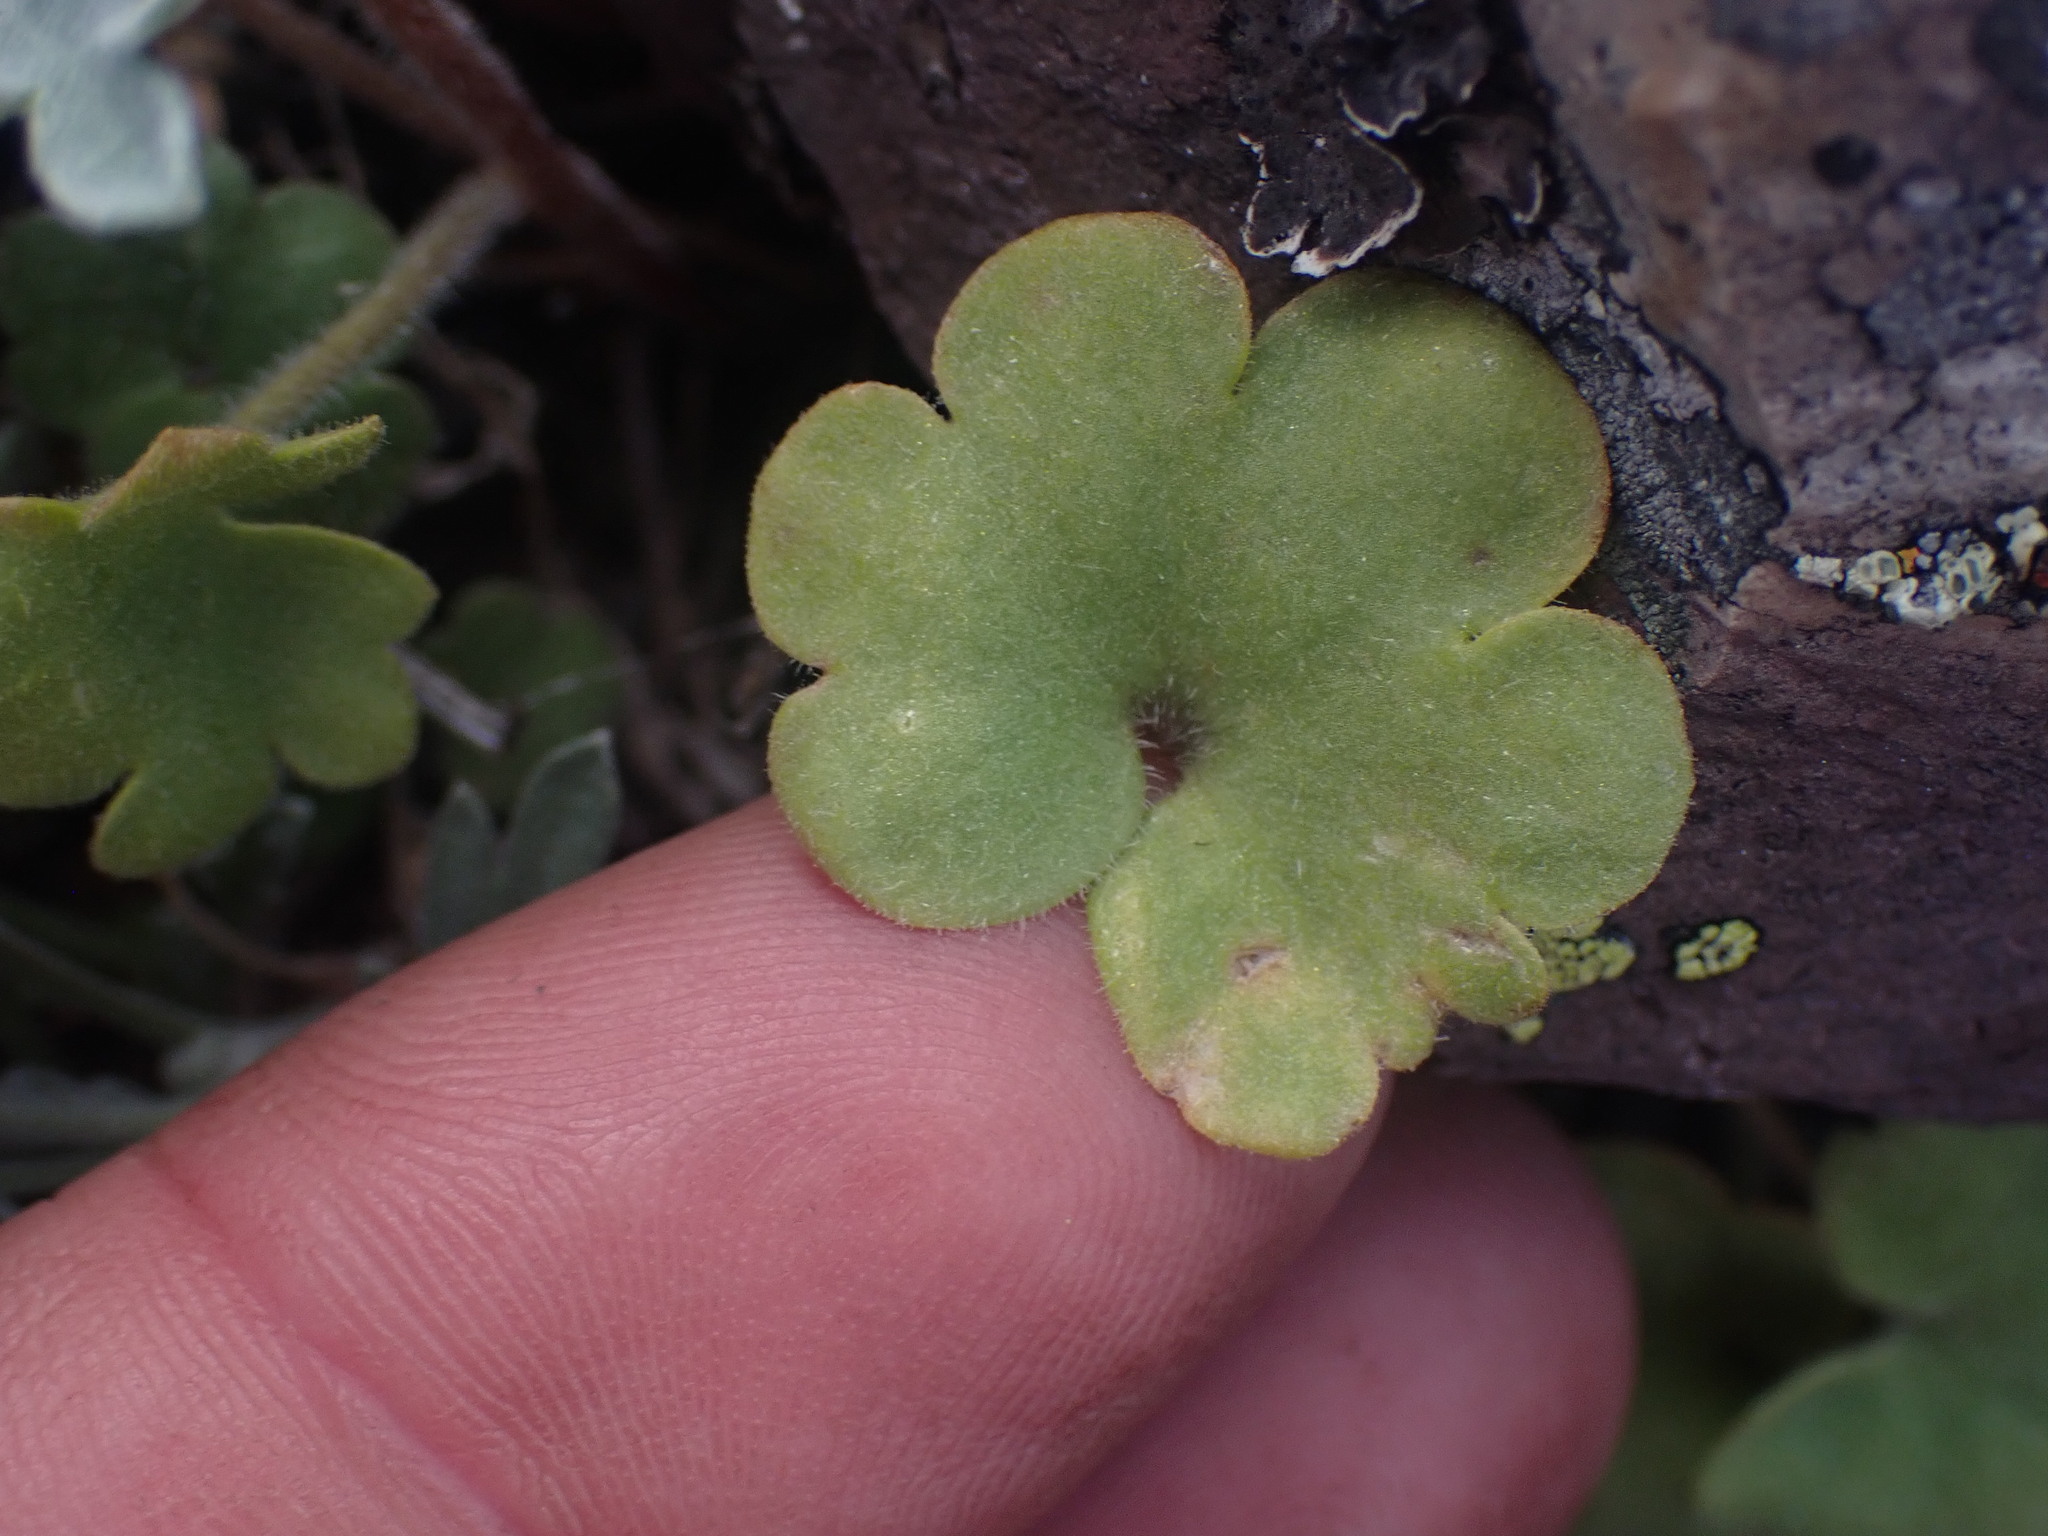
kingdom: Plantae
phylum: Tracheophyta
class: Magnoliopsida
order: Boraginales
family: Hydrophyllaceae
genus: Romanzoffia
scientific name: Romanzoffia sitchensis
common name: Sitka mistmaid
